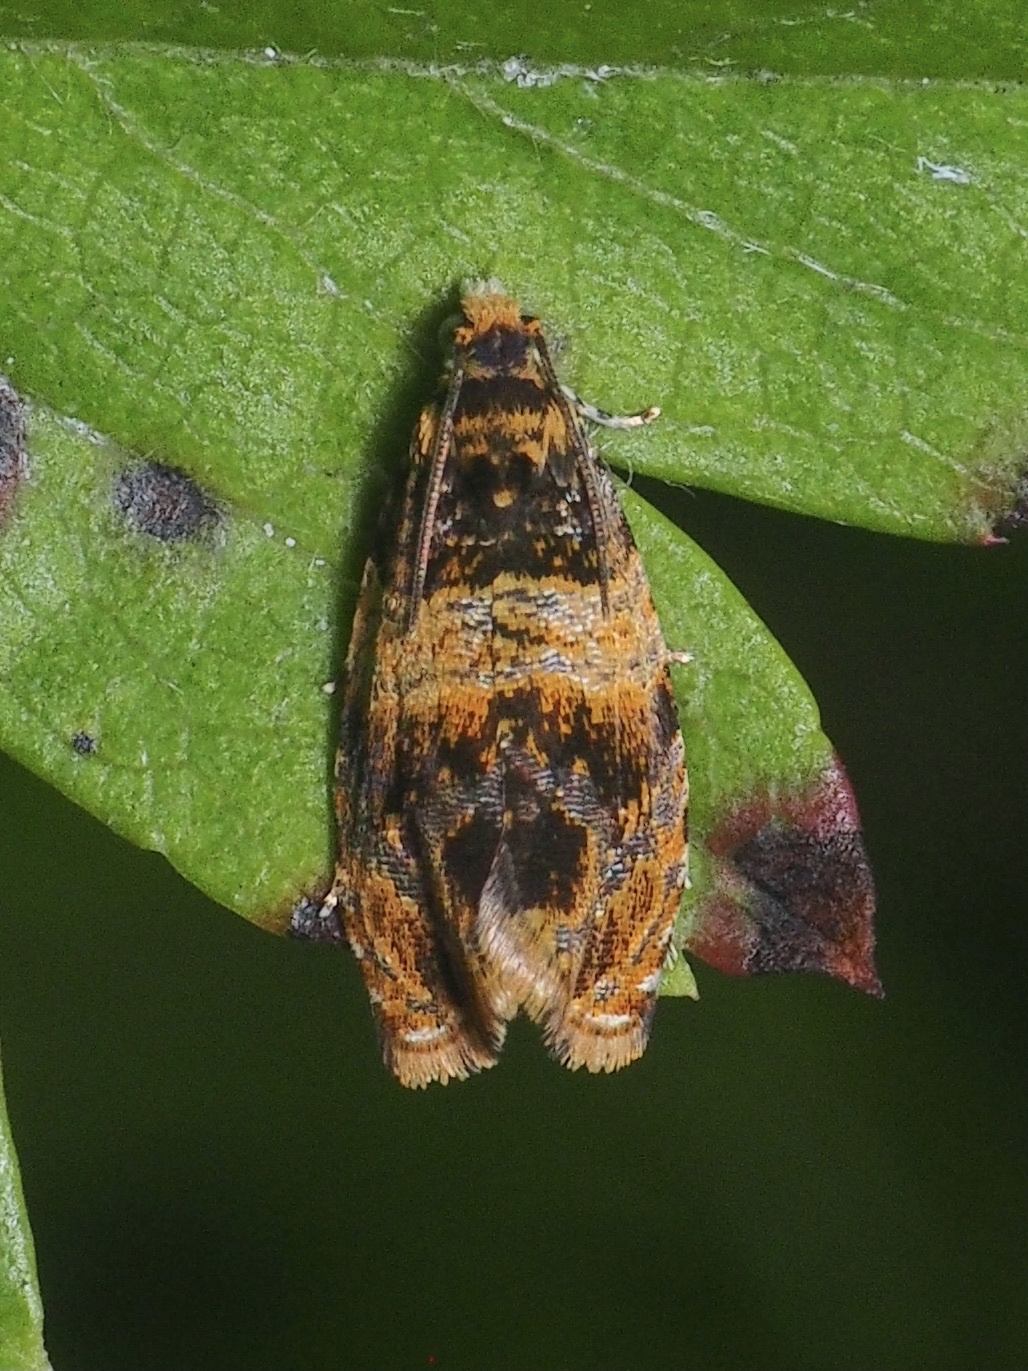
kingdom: Animalia
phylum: Arthropoda
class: Insecta
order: Lepidoptera
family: Tortricidae
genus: Celypha
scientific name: Celypha aurofasciana
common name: Moss marble
